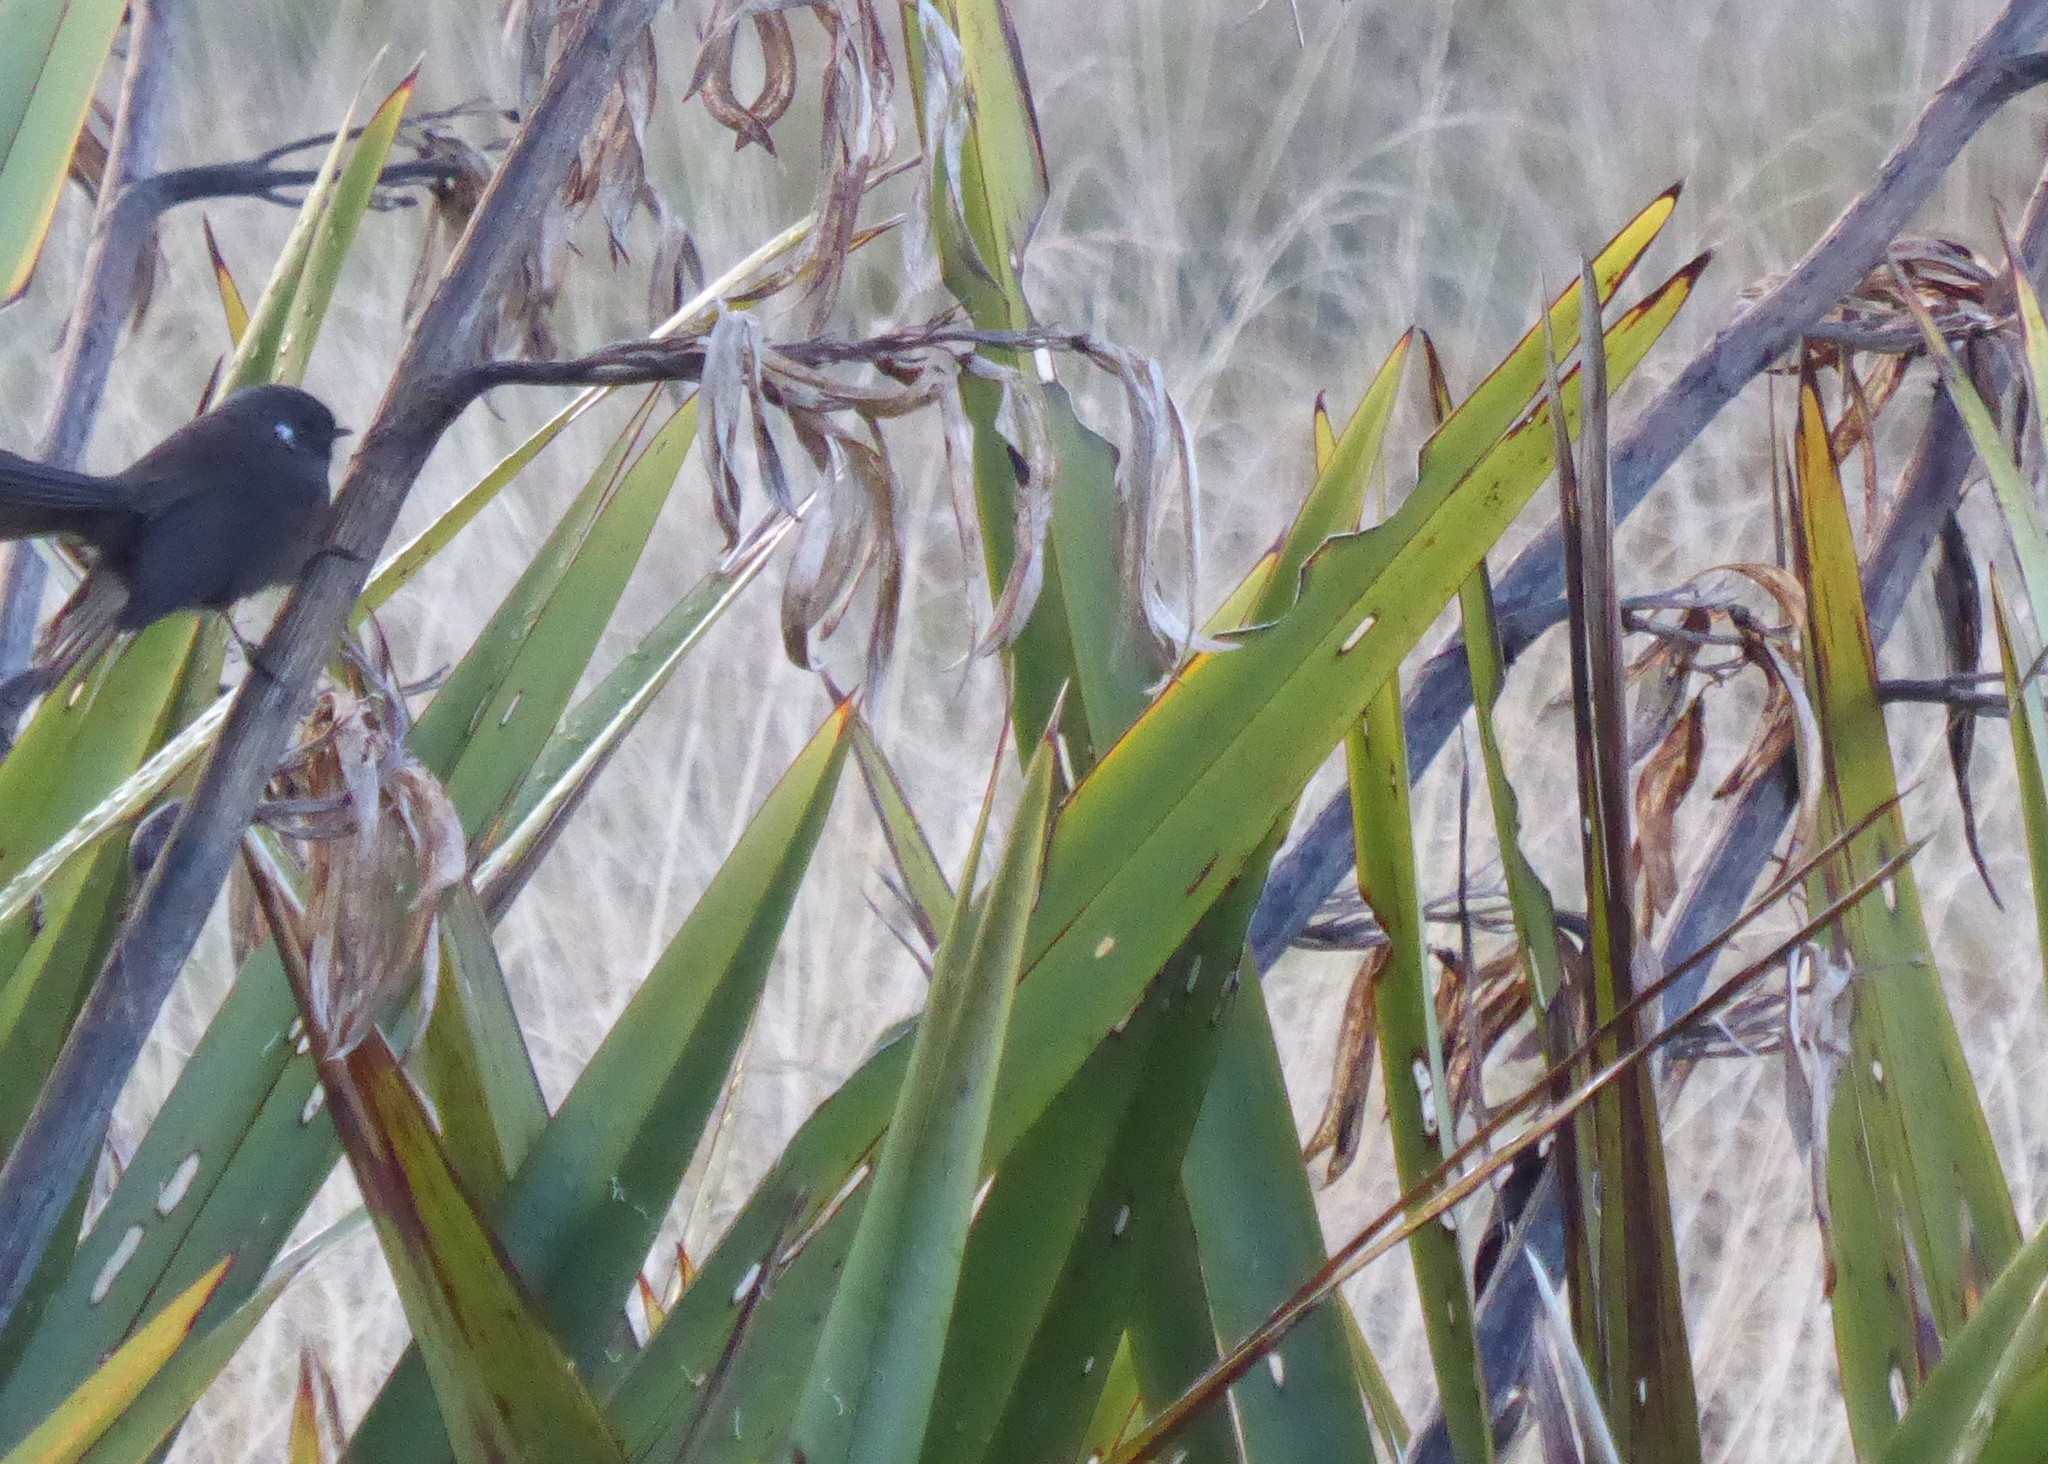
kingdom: Animalia
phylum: Chordata
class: Aves
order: Passeriformes
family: Rhipiduridae
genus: Rhipidura
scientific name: Rhipidura fuliginosa
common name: New zealand fantail
